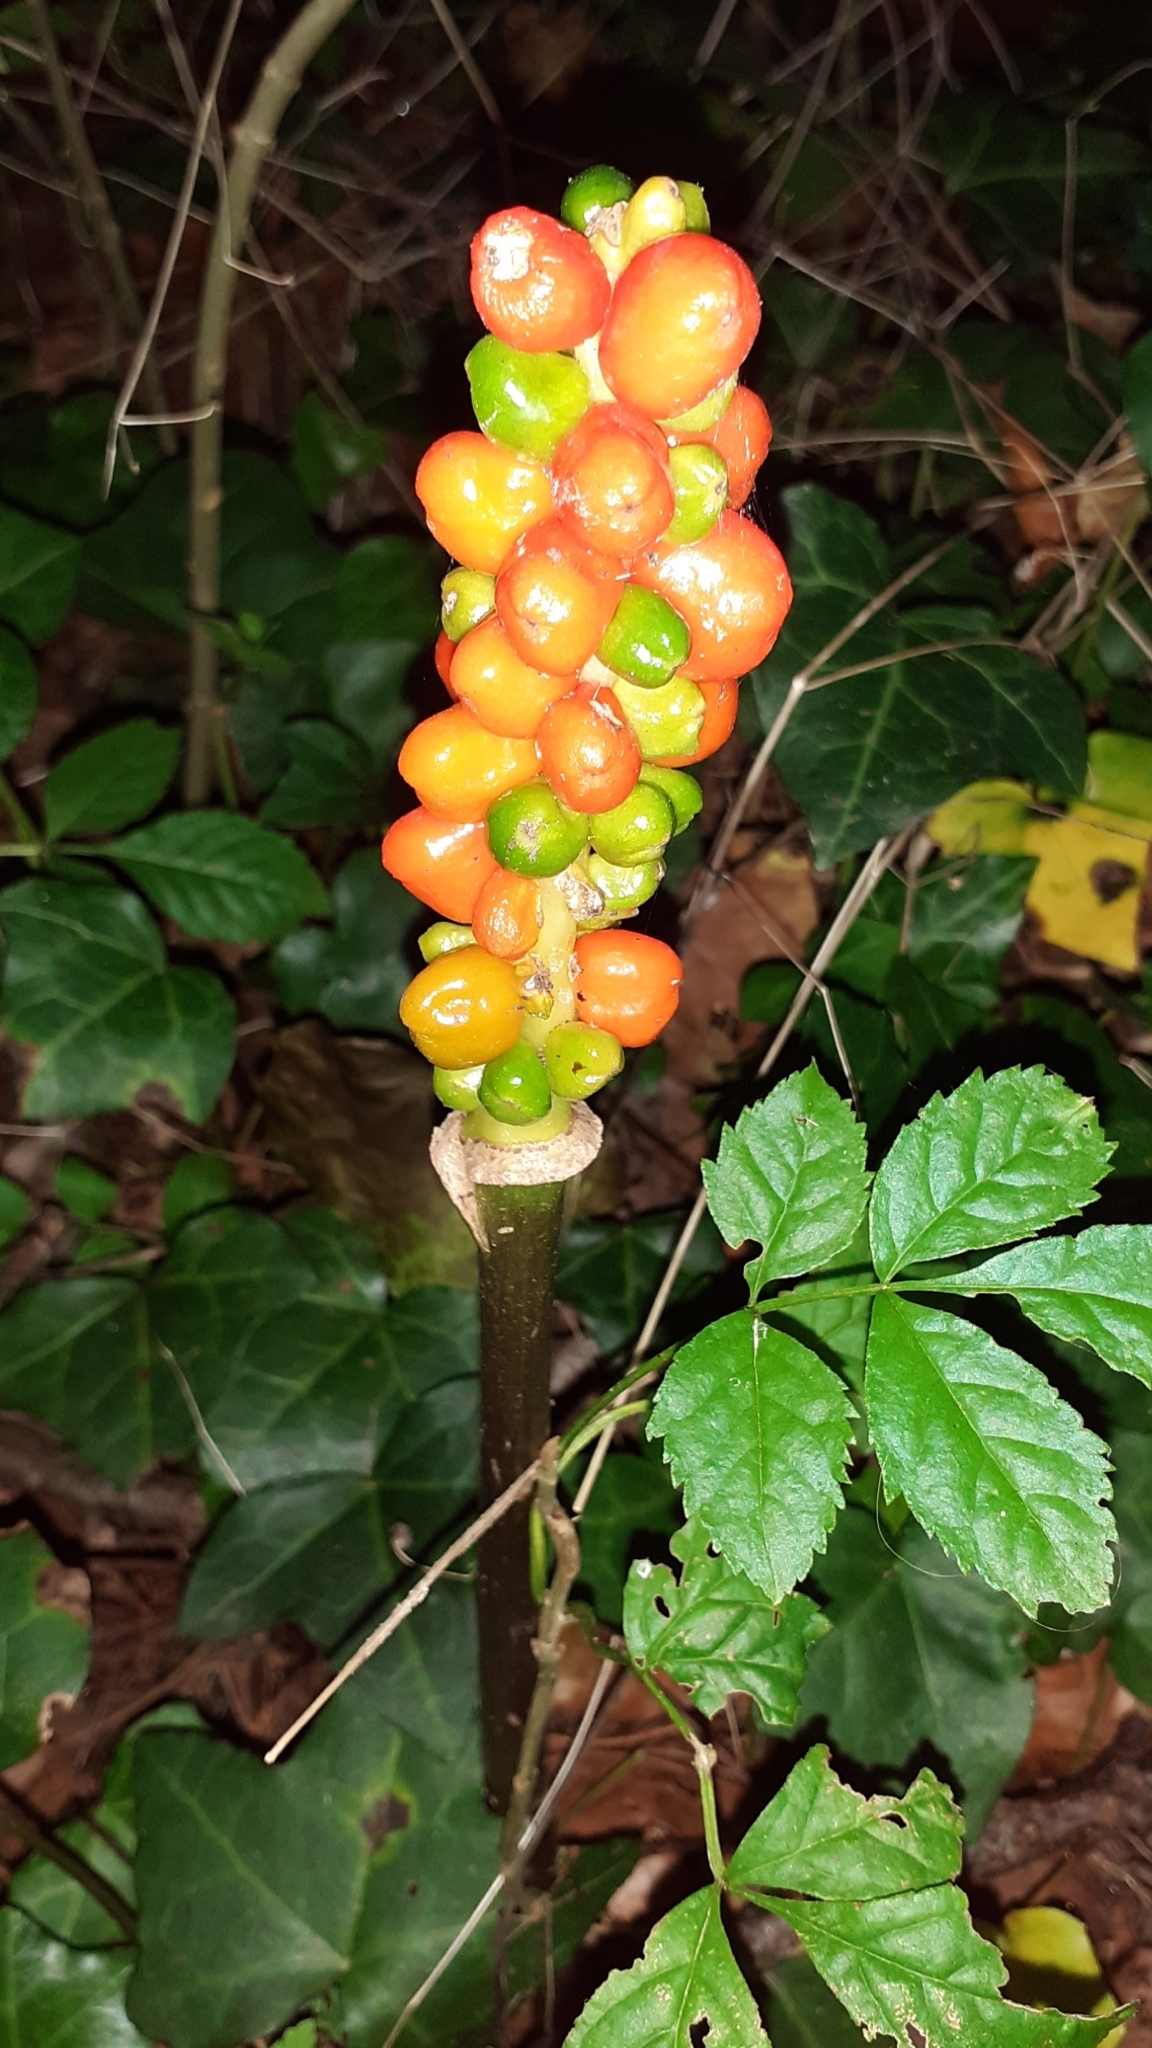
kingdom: Plantae
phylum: Tracheophyta
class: Liliopsida
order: Alismatales
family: Araceae
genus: Arum
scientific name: Arum
